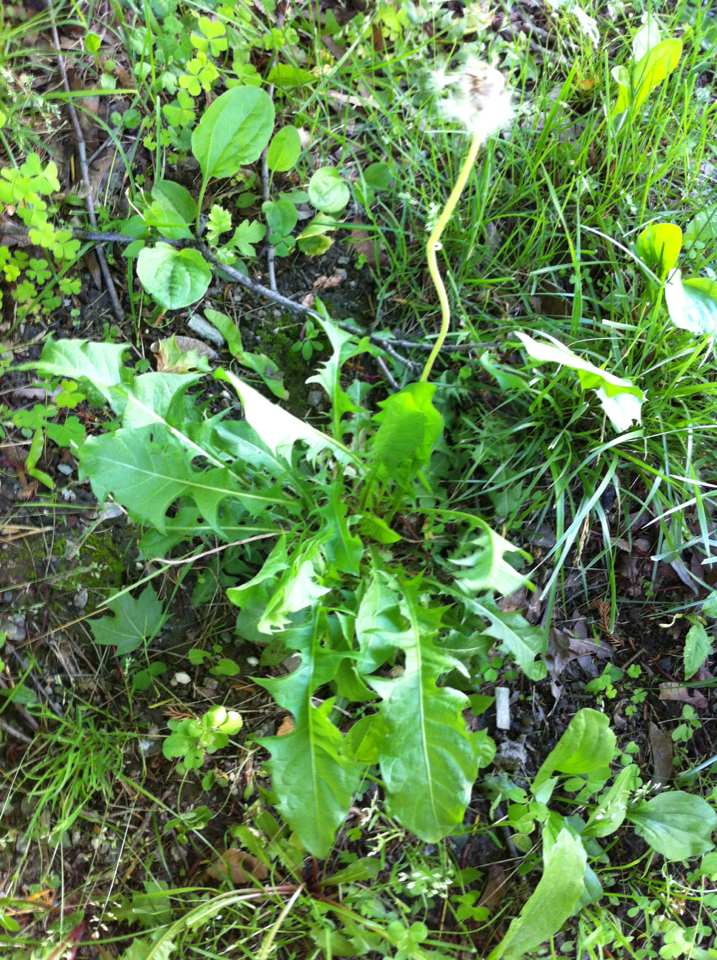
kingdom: Plantae
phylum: Tracheophyta
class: Magnoliopsida
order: Asterales
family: Asteraceae
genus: Taraxacum
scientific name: Taraxacum officinale
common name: Common dandelion
